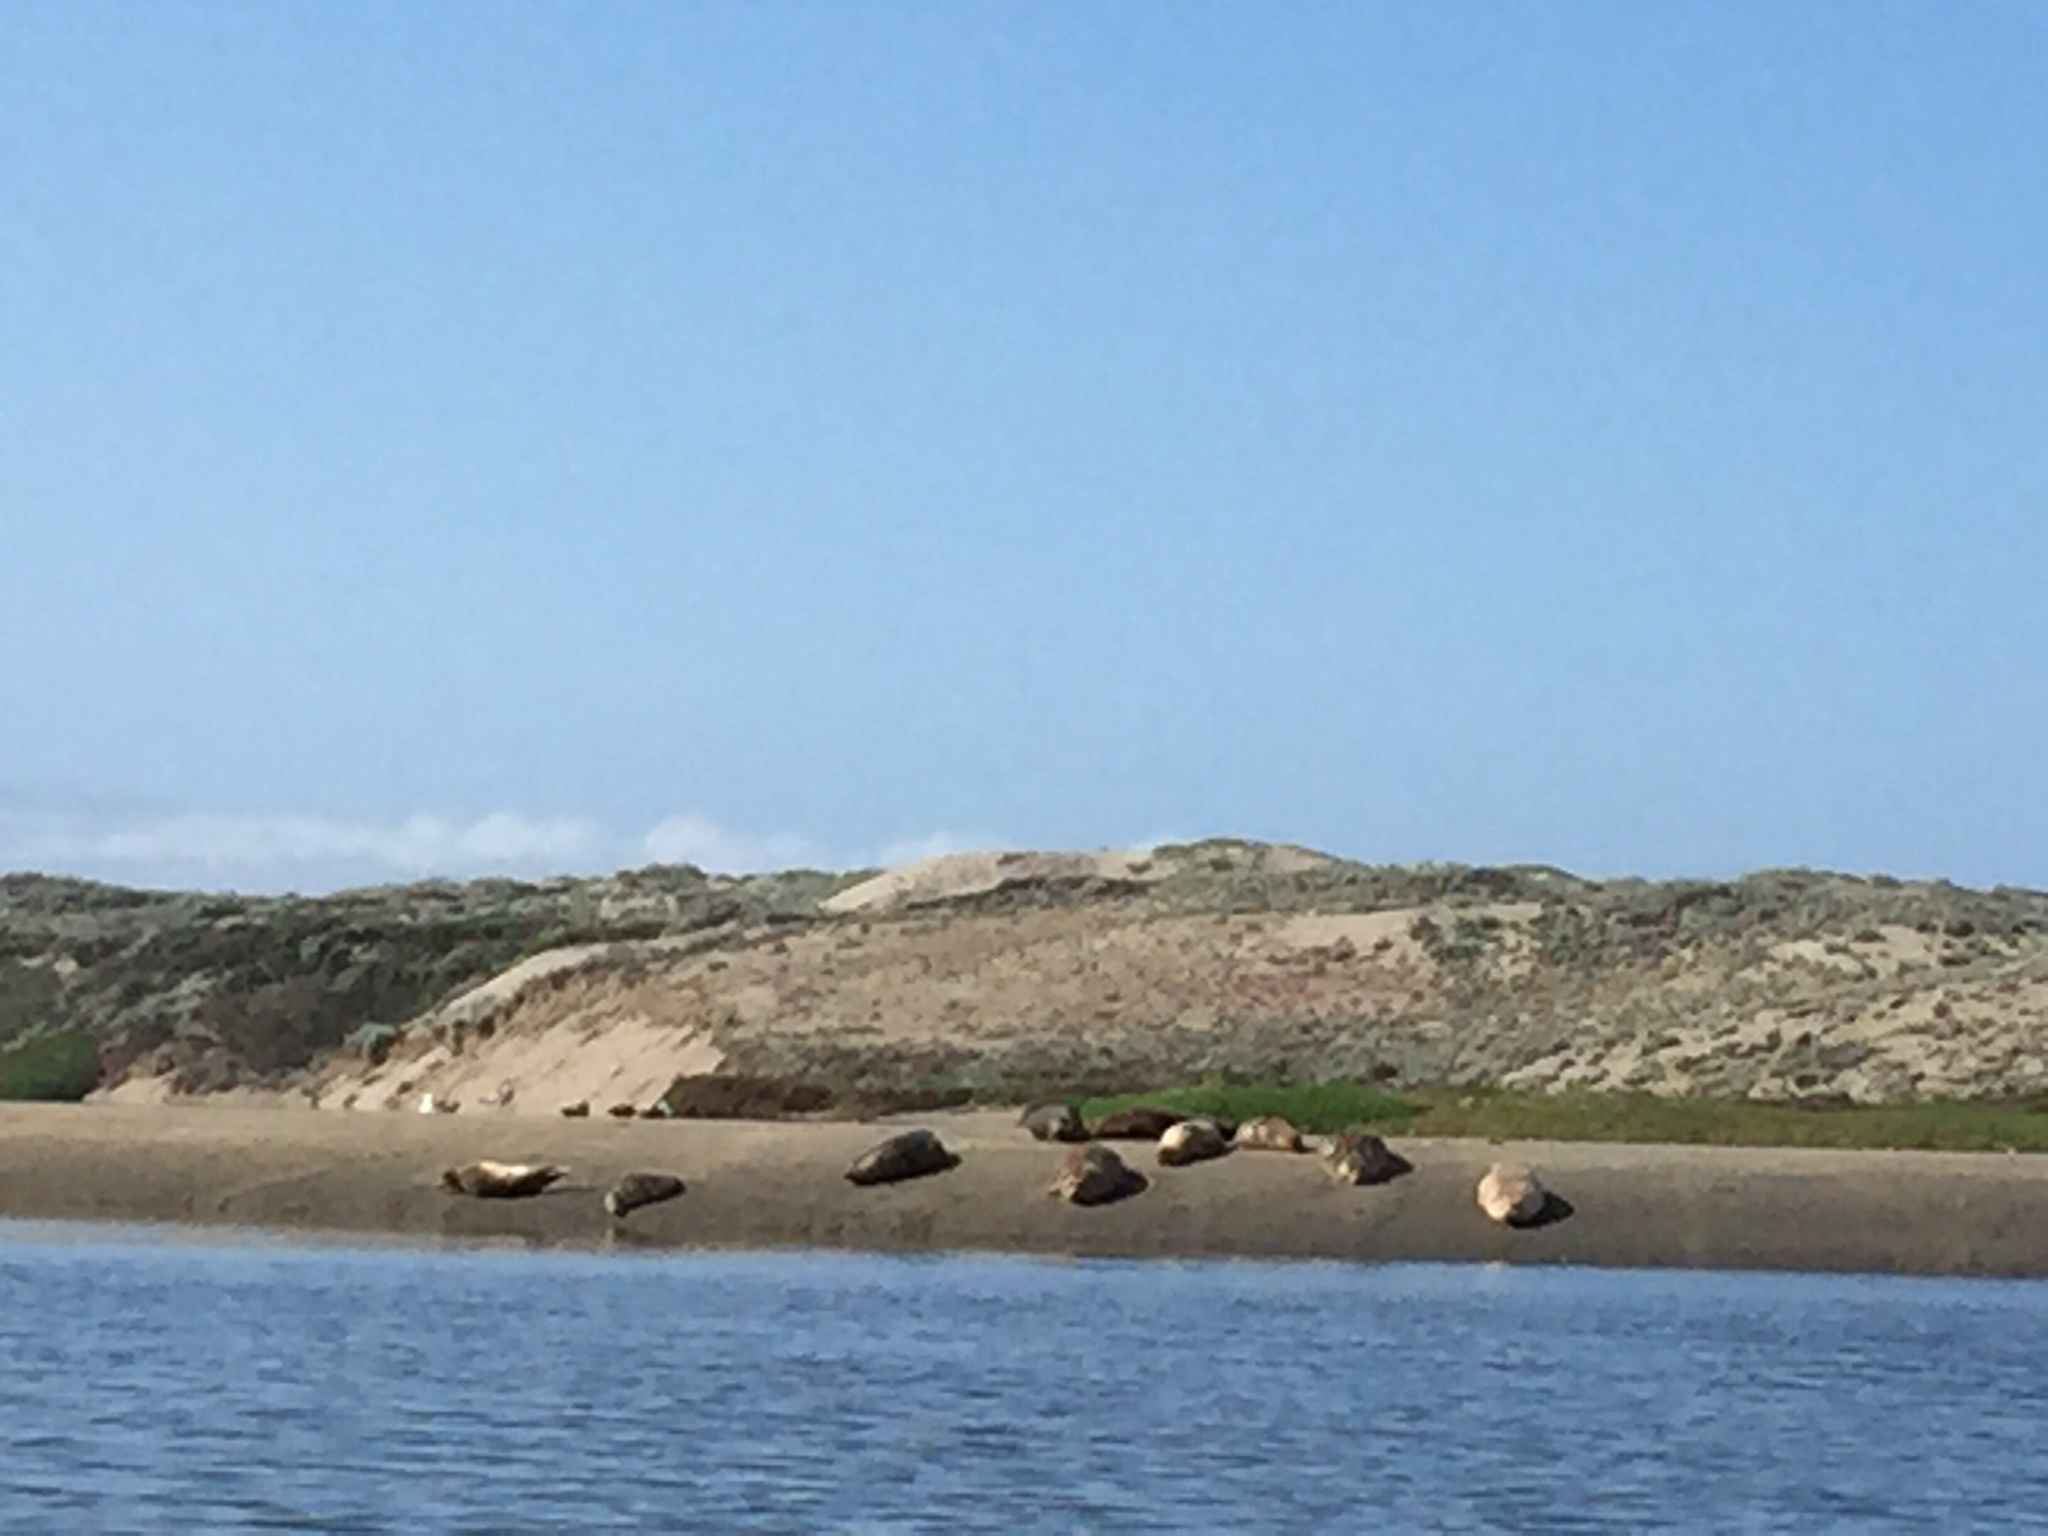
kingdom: Animalia
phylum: Chordata
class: Mammalia
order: Carnivora
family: Phocidae
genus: Phoca
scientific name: Phoca vitulina
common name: Harbor seal
